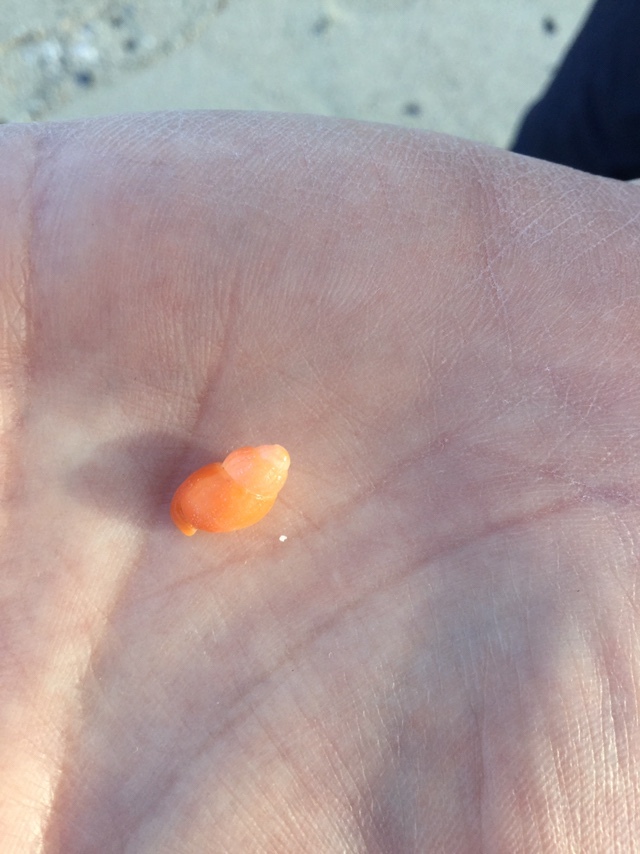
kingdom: Animalia
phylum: Mollusca
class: Gastropoda
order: Neogastropoda
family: Columbellidae
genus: Amphissa
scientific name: Amphissa versicolor
